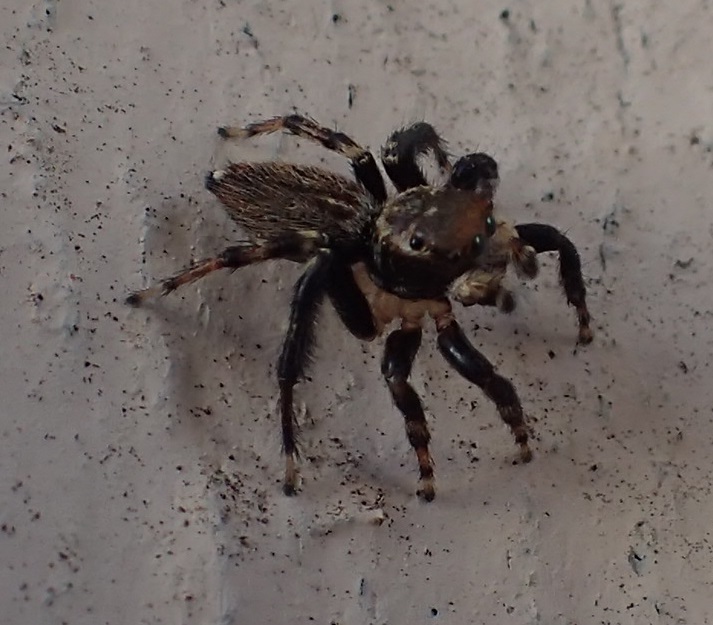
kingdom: Animalia
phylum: Arthropoda
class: Arachnida
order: Araneae
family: Salticidae
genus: Maratus
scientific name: Maratus griseus
